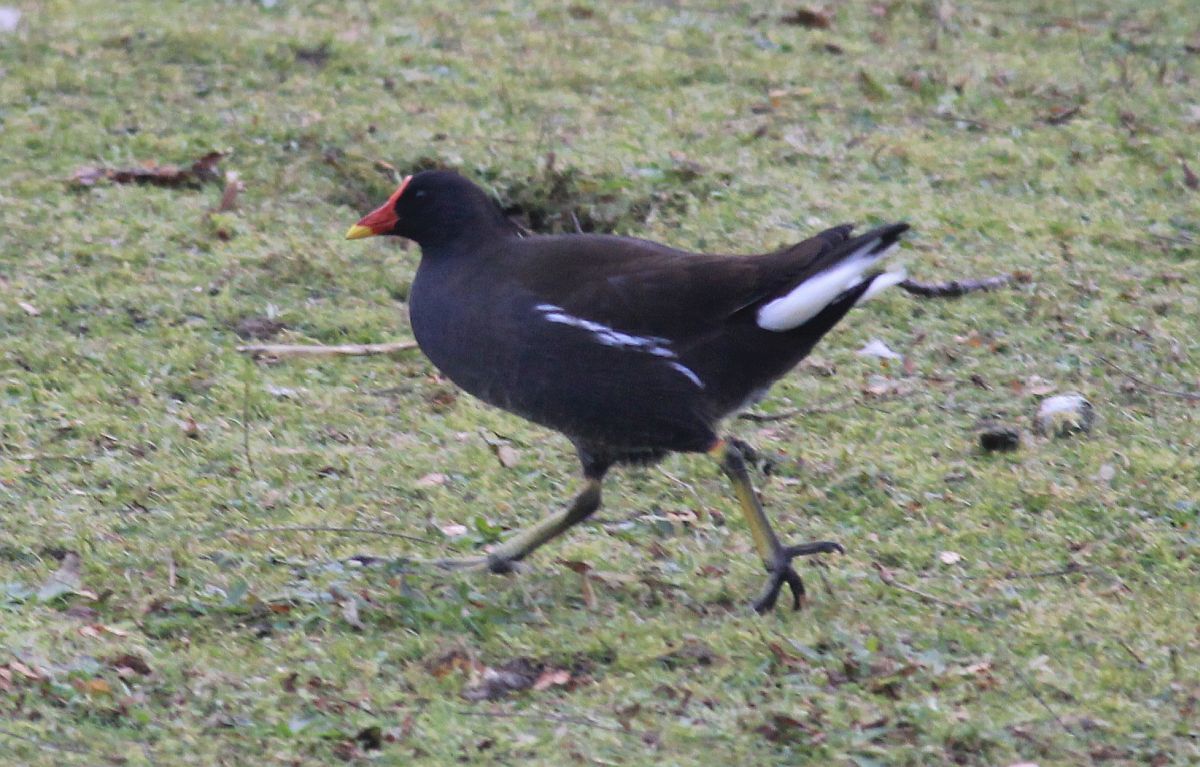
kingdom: Animalia
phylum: Chordata
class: Aves
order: Gruiformes
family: Rallidae
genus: Gallinula
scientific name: Gallinula chloropus
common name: Common moorhen
